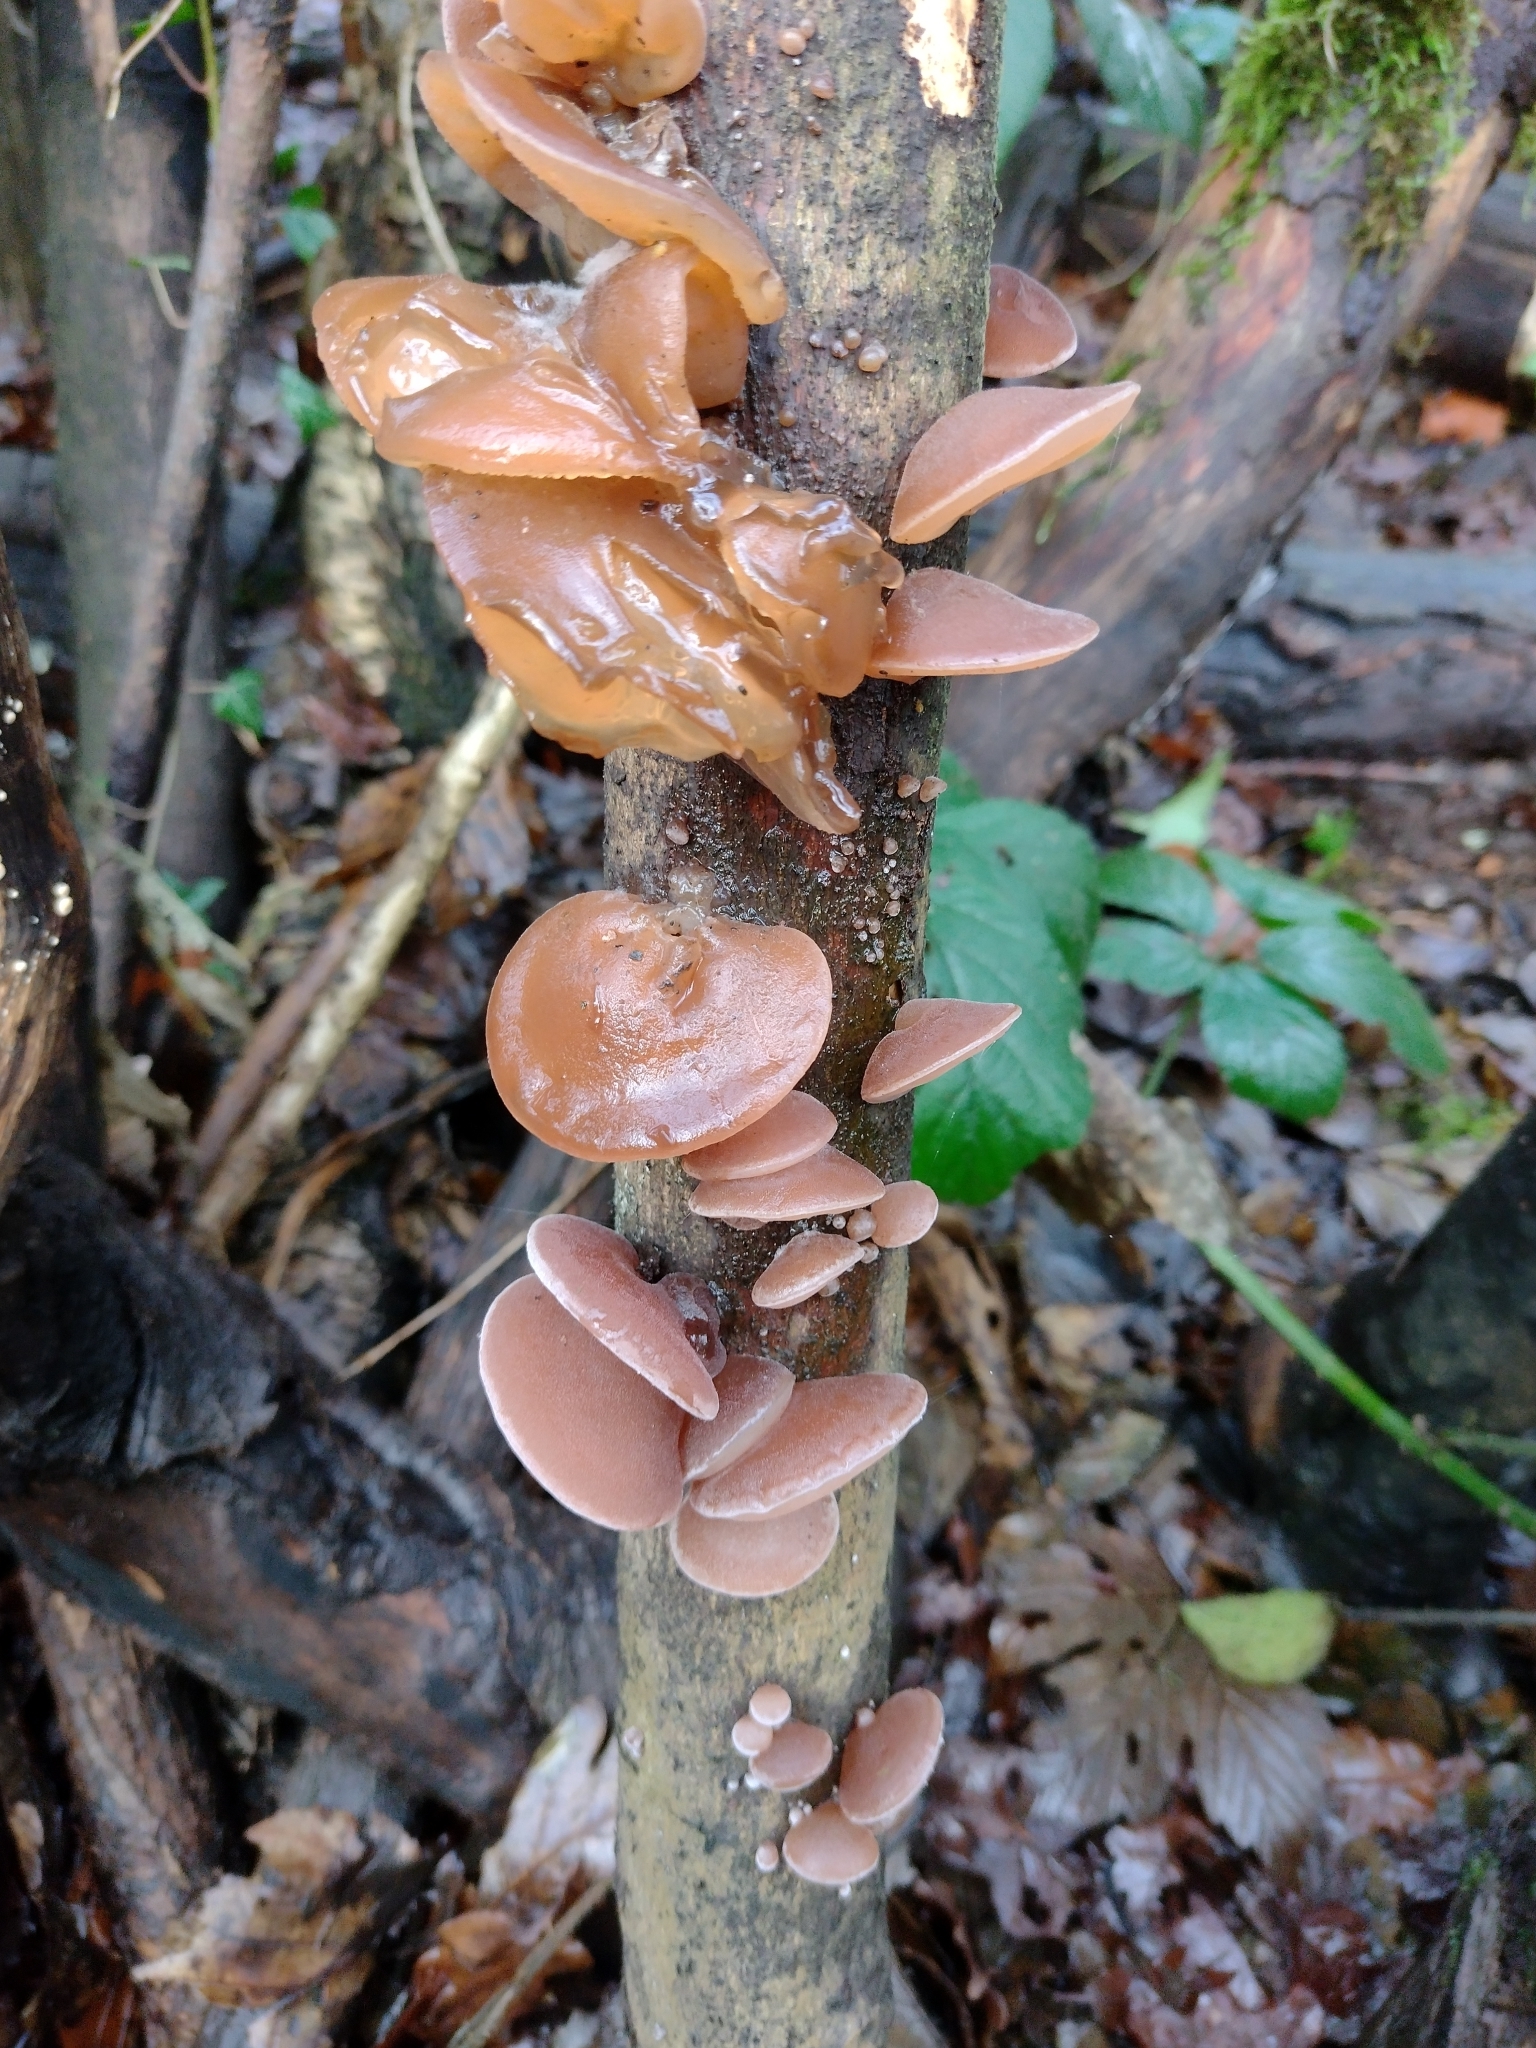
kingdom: Fungi
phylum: Basidiomycota
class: Agaricomycetes
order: Auriculariales
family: Auriculariaceae
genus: Auricularia
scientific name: Auricularia auricula-judae
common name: Jelly ear
